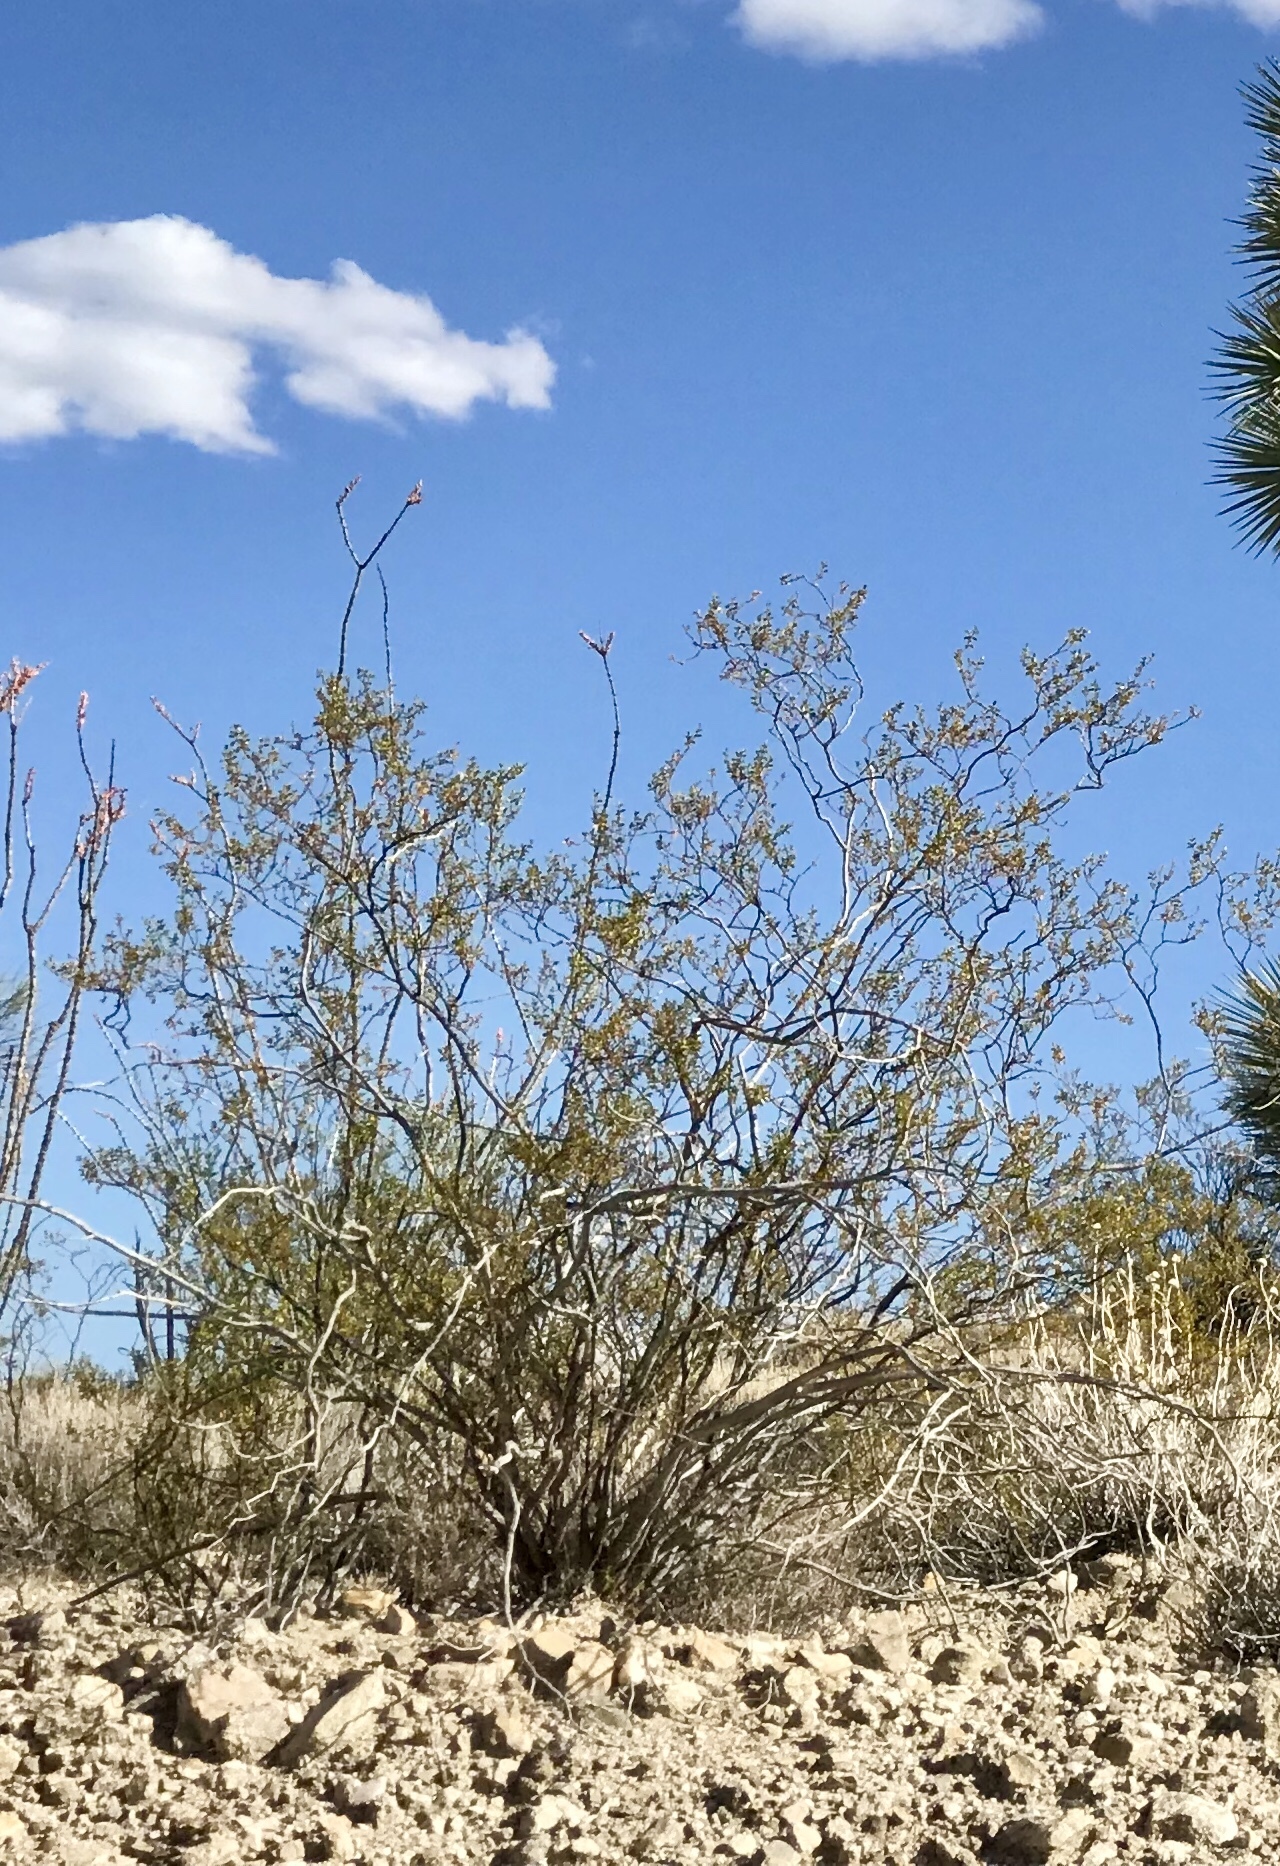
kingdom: Plantae
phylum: Tracheophyta
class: Magnoliopsida
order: Zygophyllales
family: Zygophyllaceae
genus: Larrea
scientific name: Larrea tridentata
